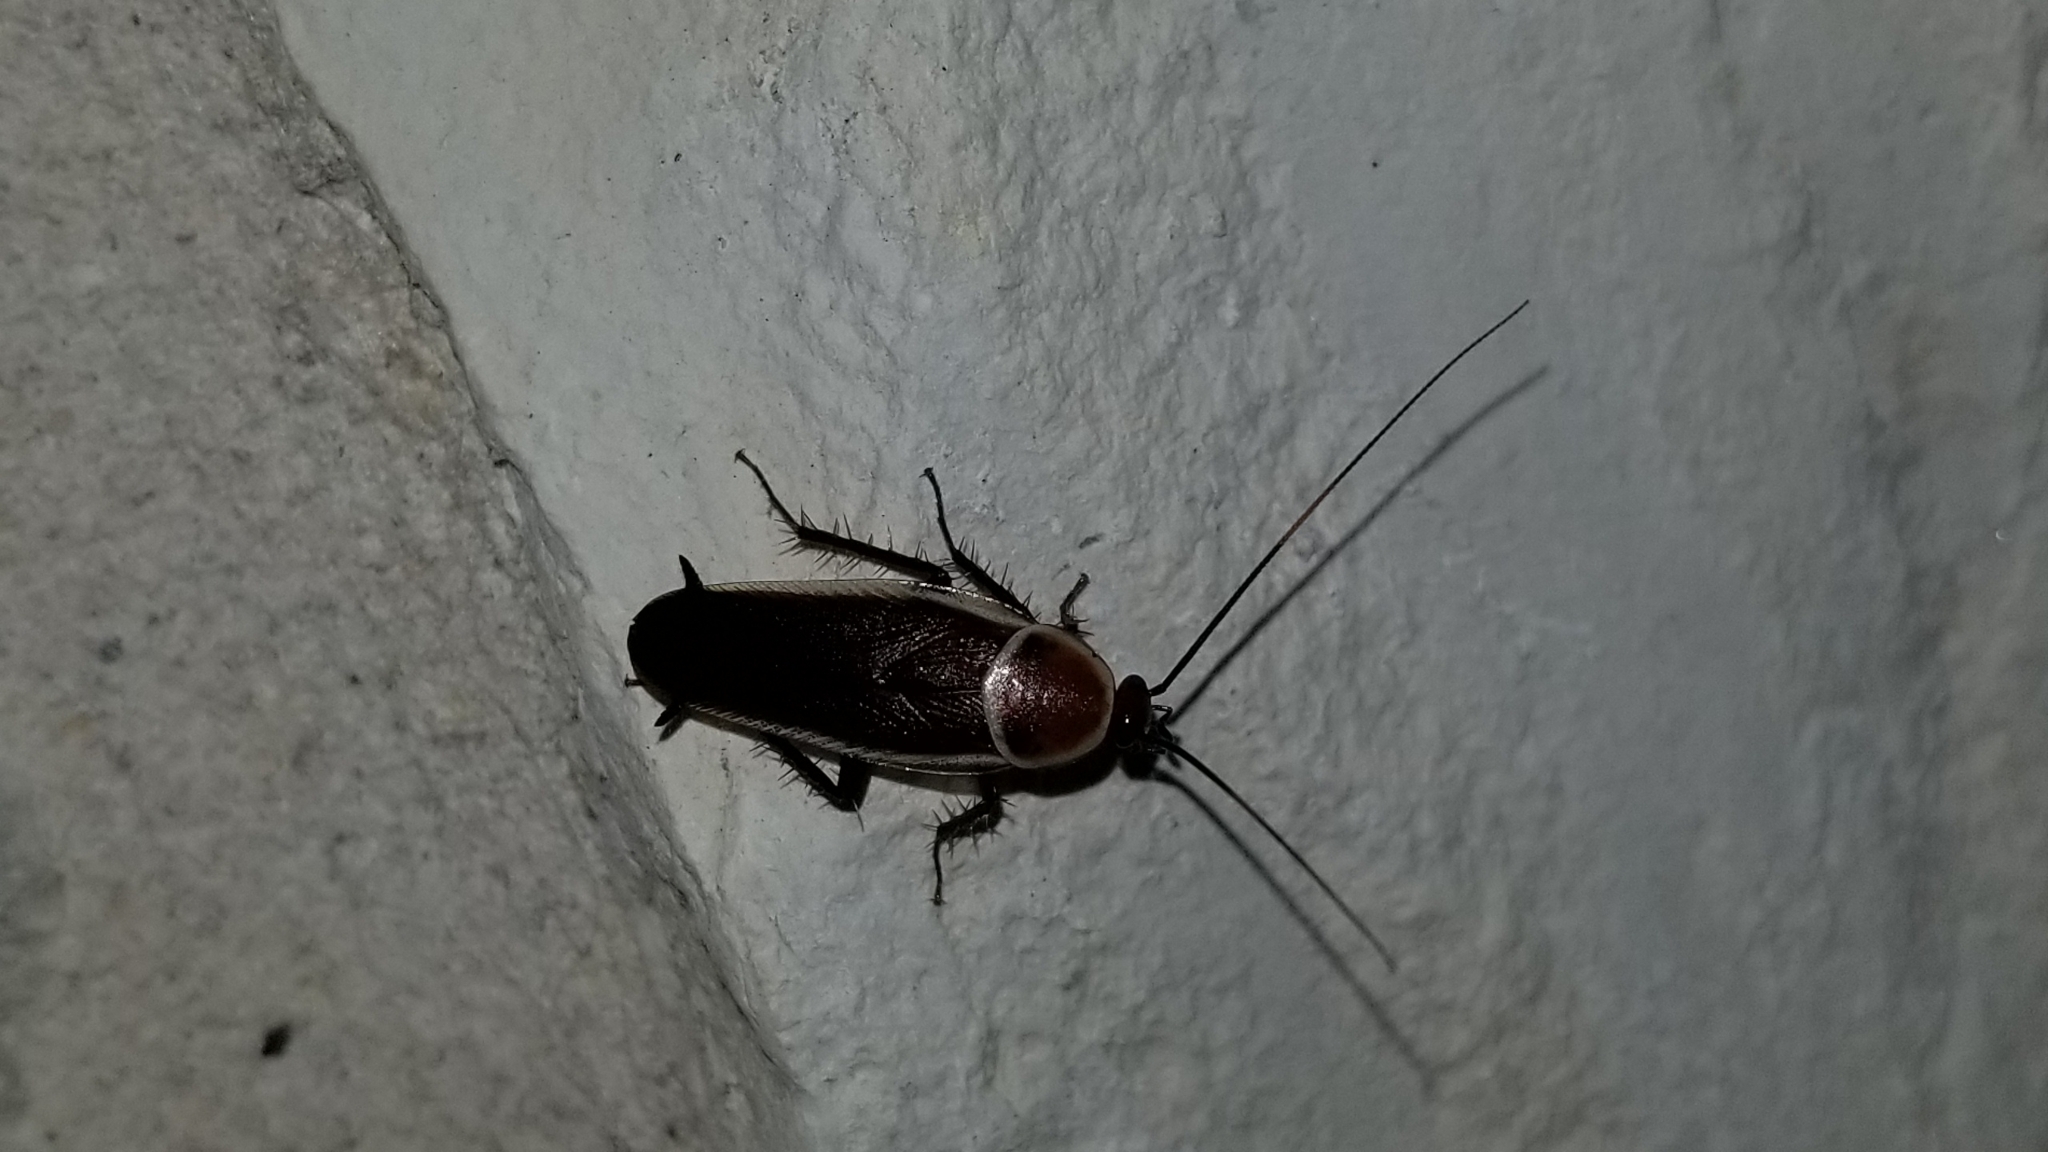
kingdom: Animalia
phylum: Arthropoda
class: Insecta
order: Blattodea
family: Ectobiidae
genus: Pseudomops
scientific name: Pseudomops septentrionalis
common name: Pale-bordered field cockroach
